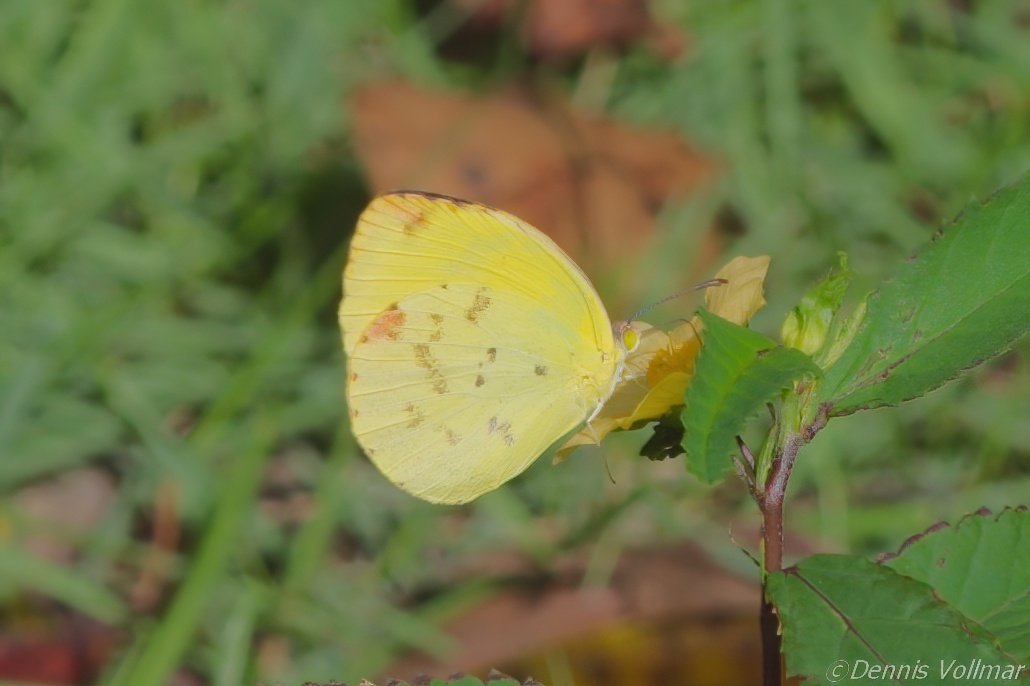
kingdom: Animalia
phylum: Arthropoda
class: Insecta
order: Lepidoptera
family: Pieridae
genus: Pyrisitia
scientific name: Pyrisitia dina
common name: Dina yellow
